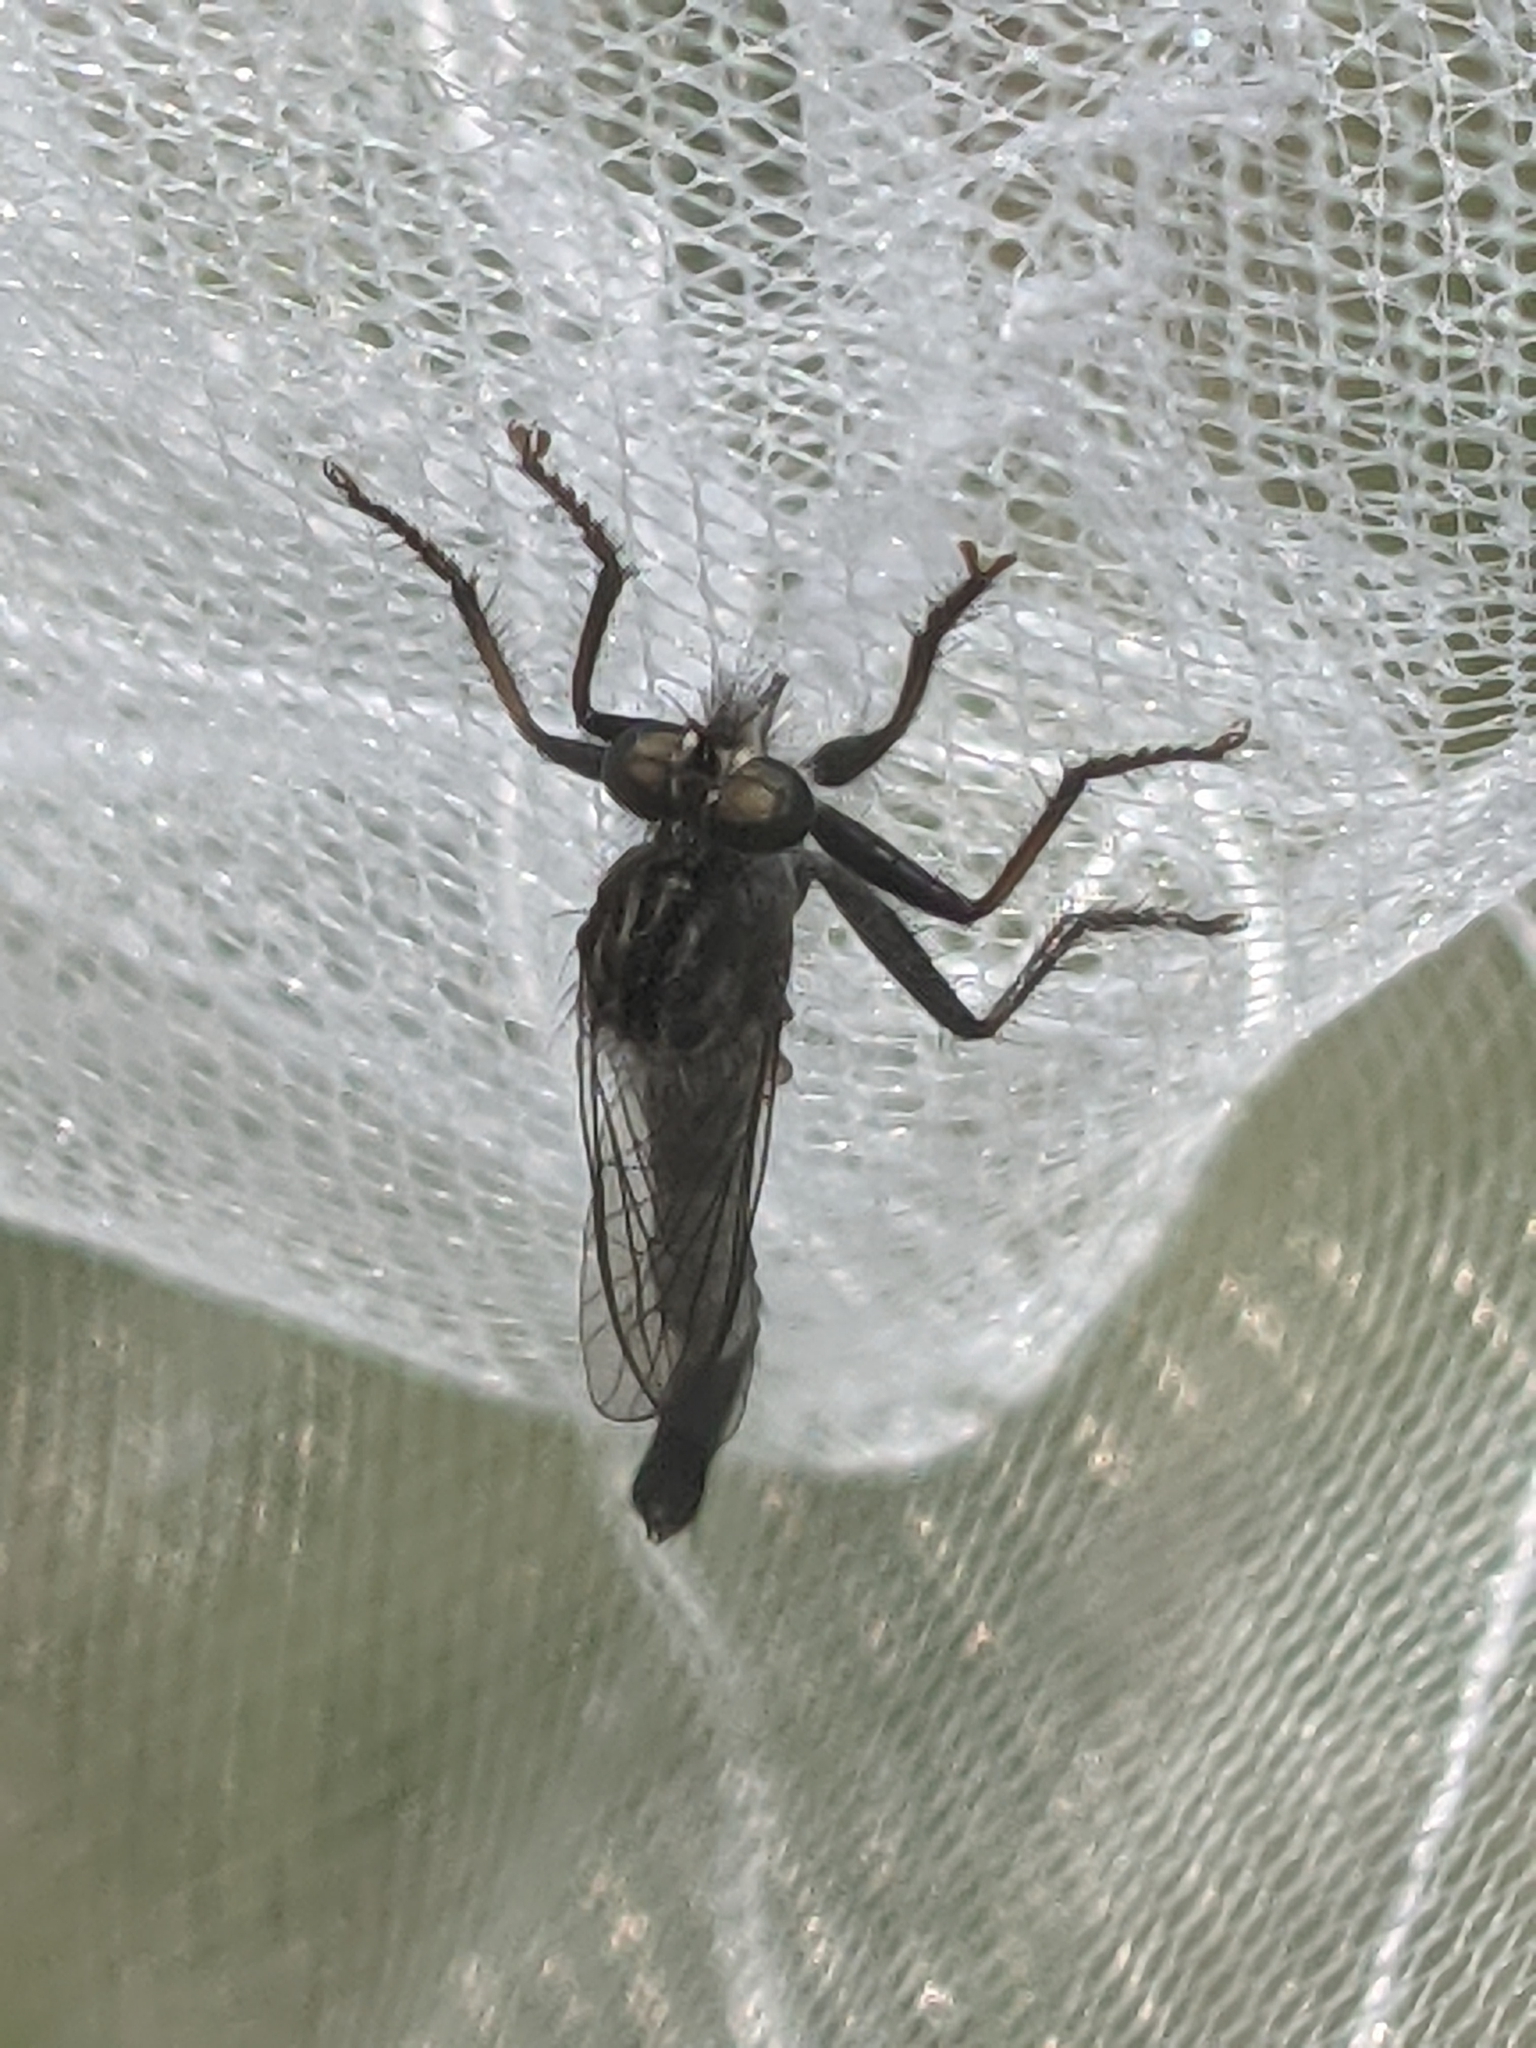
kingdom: Animalia
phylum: Arthropoda
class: Insecta
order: Diptera
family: Asilidae
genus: Efferia
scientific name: Efferia aestuans
